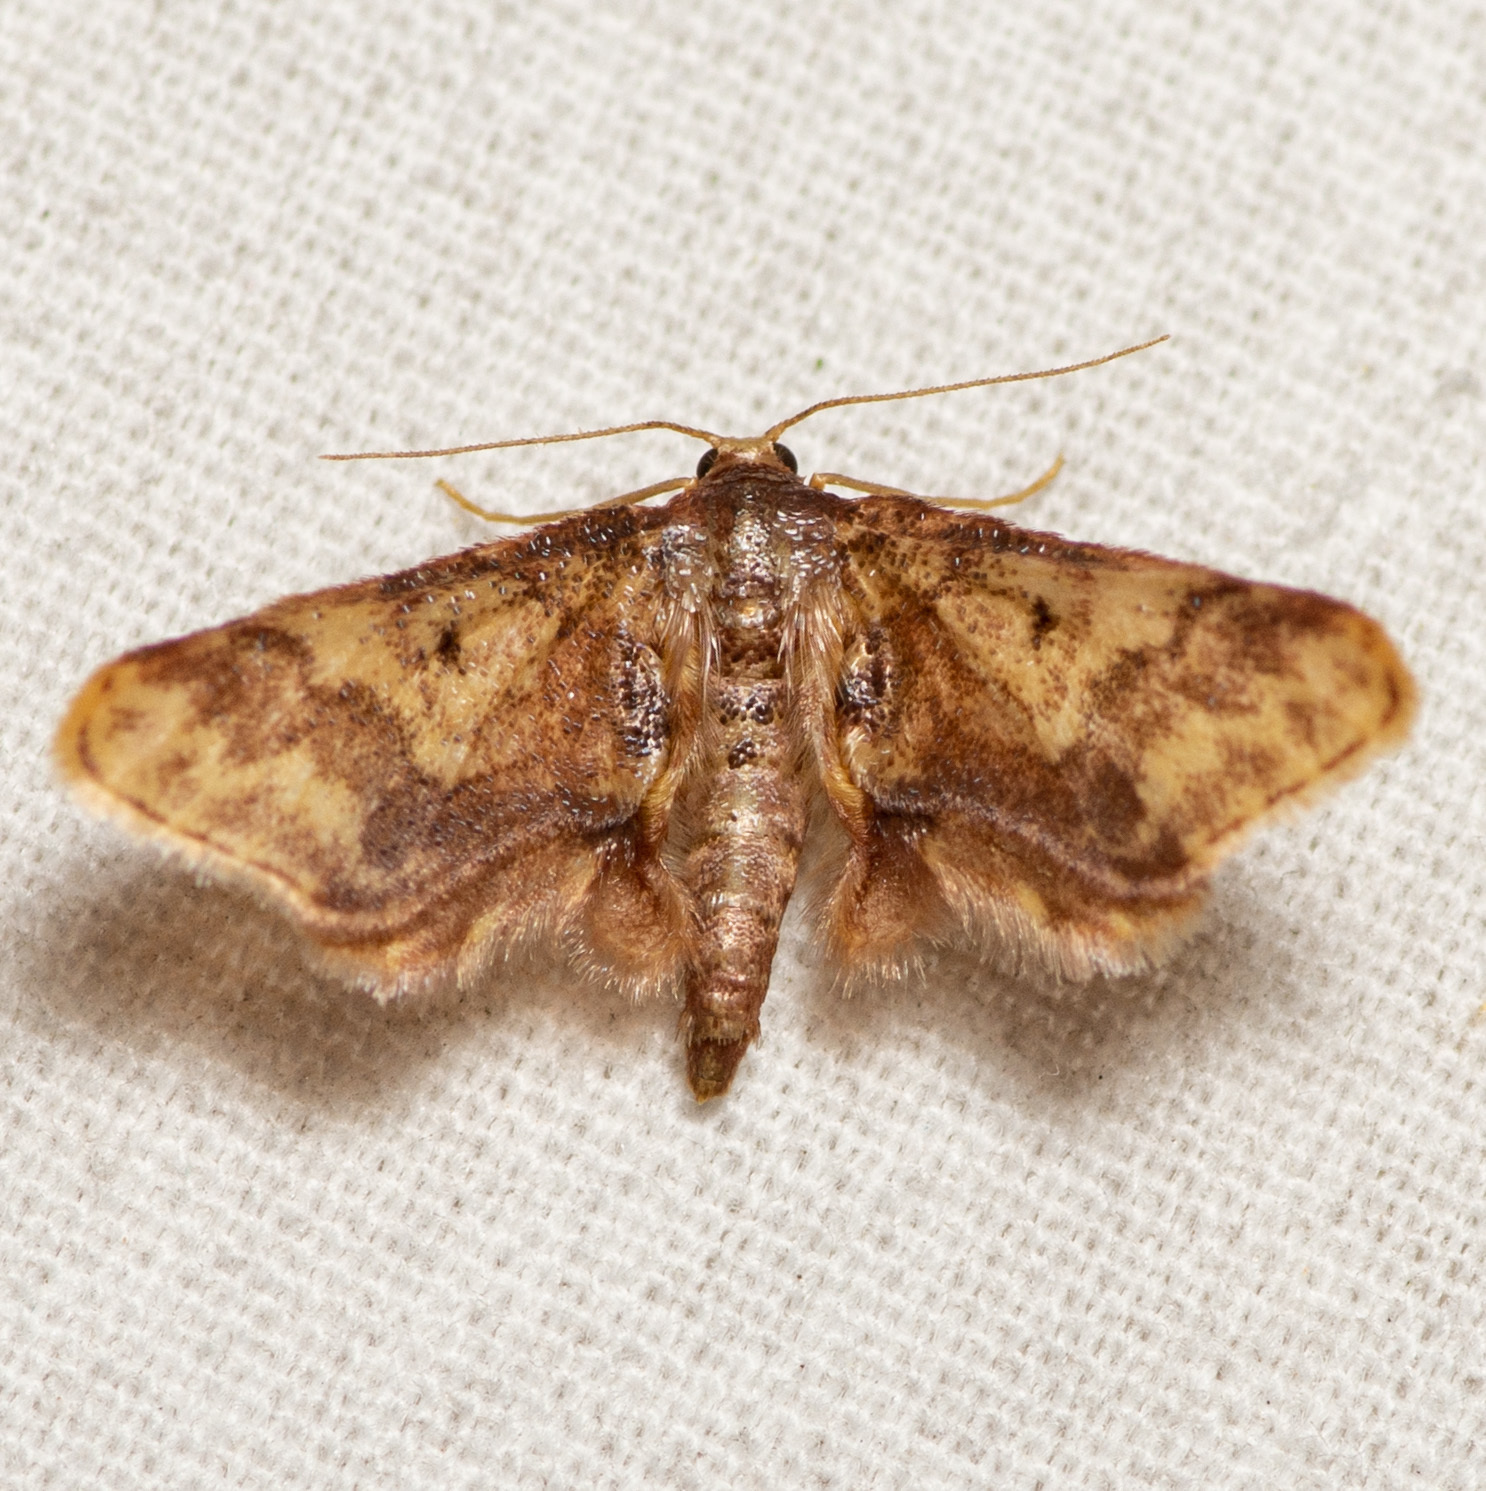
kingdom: Animalia
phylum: Arthropoda
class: Insecta
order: Lepidoptera
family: Geometridae
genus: Idaea
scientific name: Idaea furciferata
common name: Notch-winged wave
